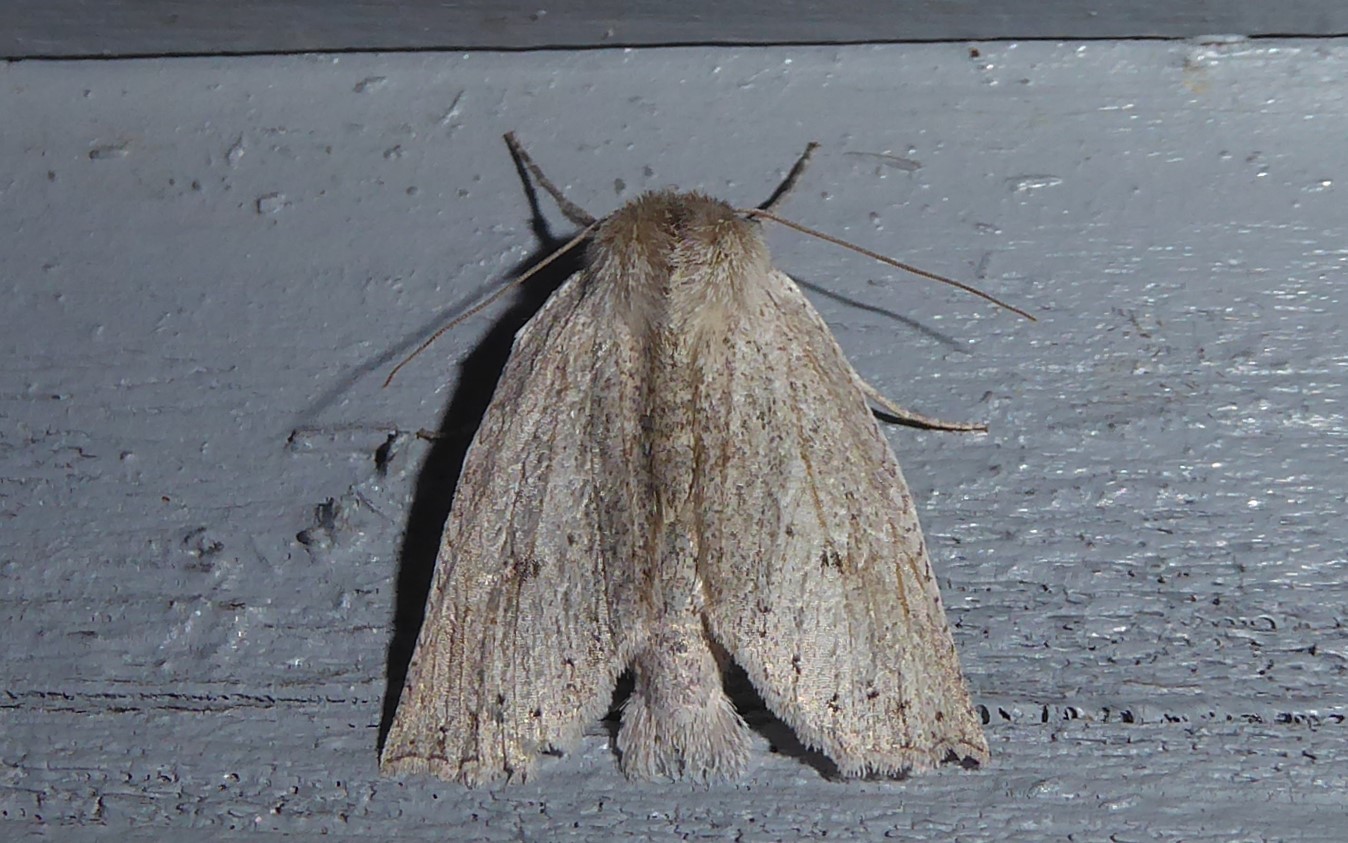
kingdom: Animalia
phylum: Arthropoda
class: Insecta
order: Lepidoptera
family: Geometridae
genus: Declana
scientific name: Declana leptomera
